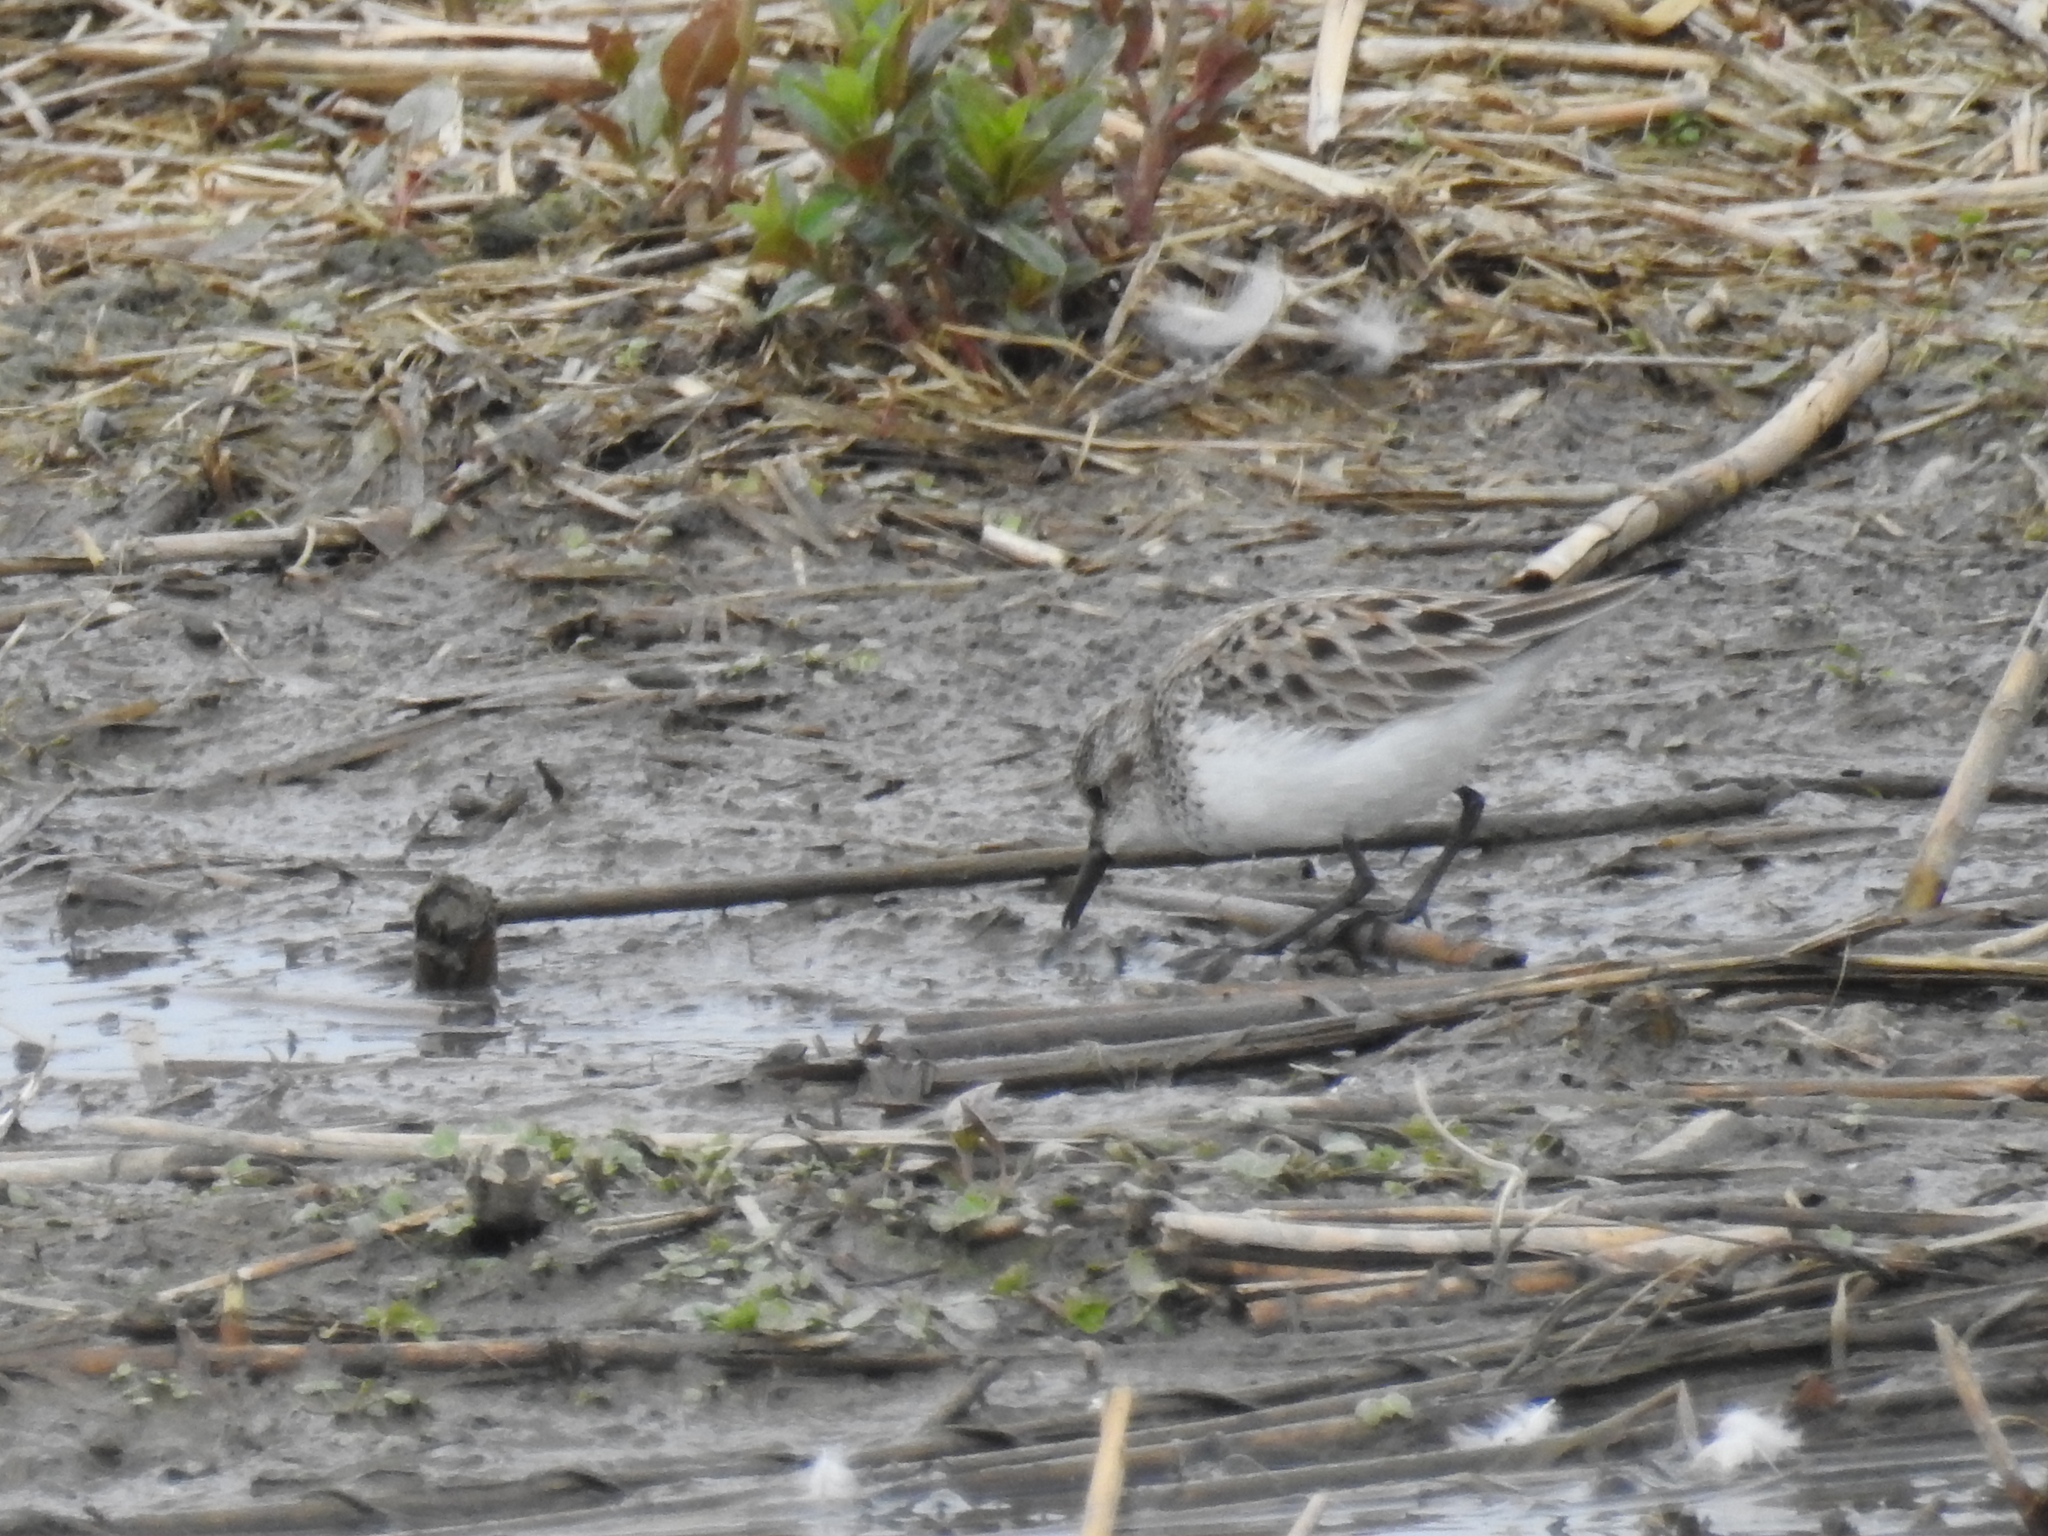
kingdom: Animalia
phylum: Chordata
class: Aves
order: Charadriiformes
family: Scolopacidae
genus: Calidris
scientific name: Calidris pusilla
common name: Semipalmated sandpiper
